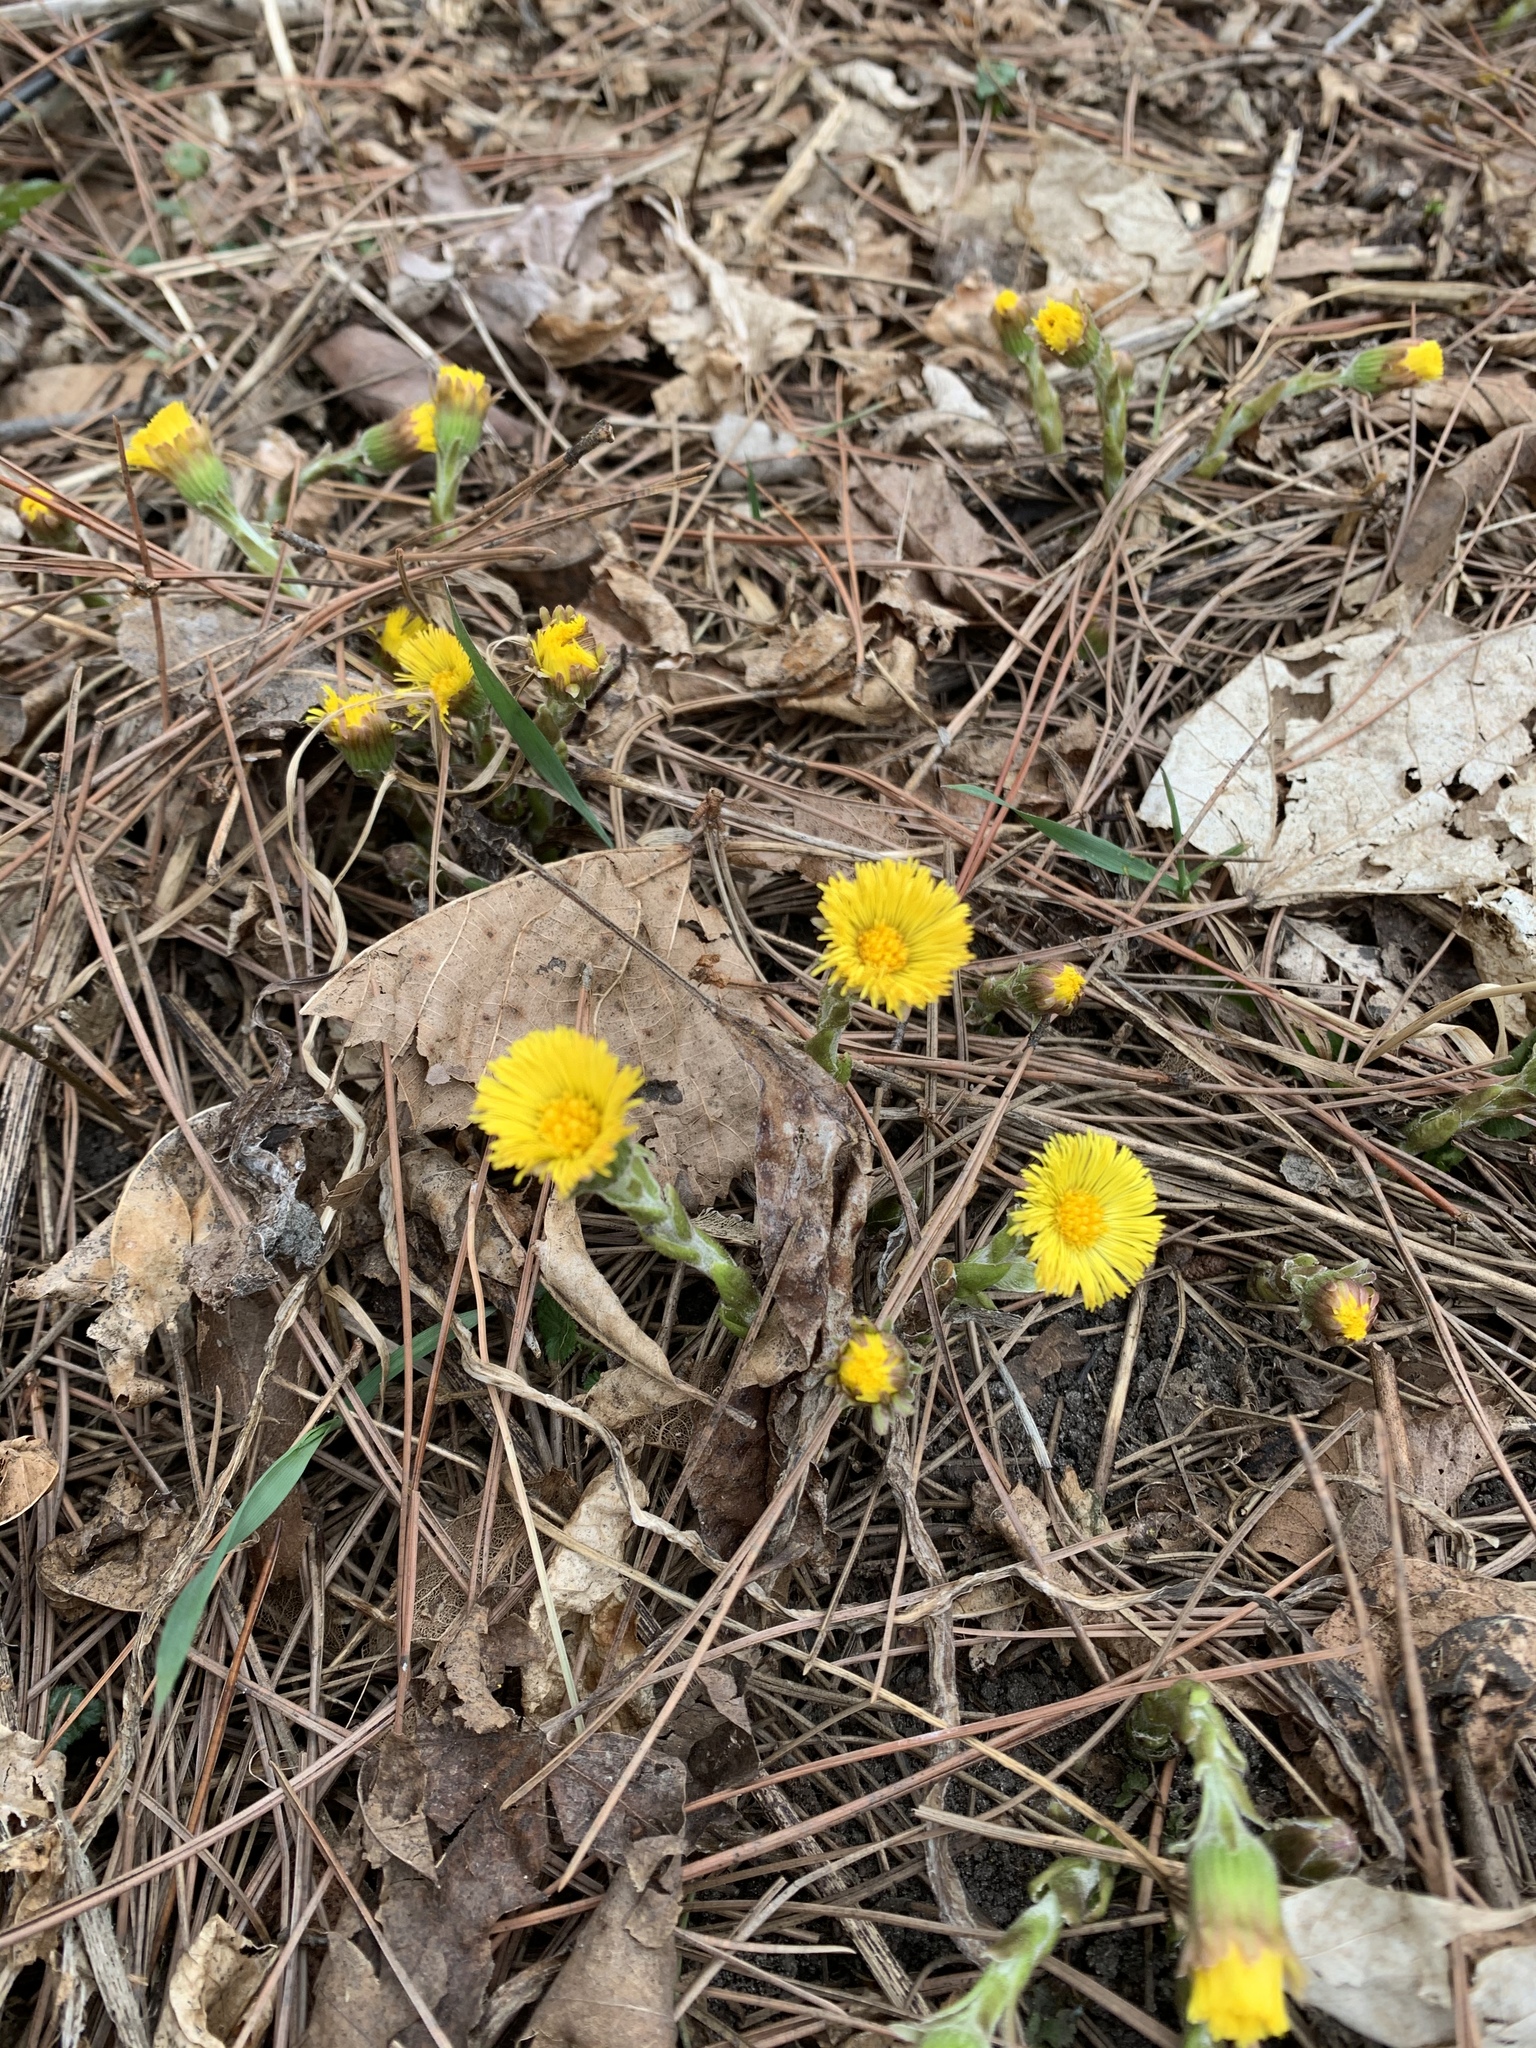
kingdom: Plantae
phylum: Tracheophyta
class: Magnoliopsida
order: Asterales
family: Asteraceae
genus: Tussilago
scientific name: Tussilago farfara
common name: Coltsfoot
